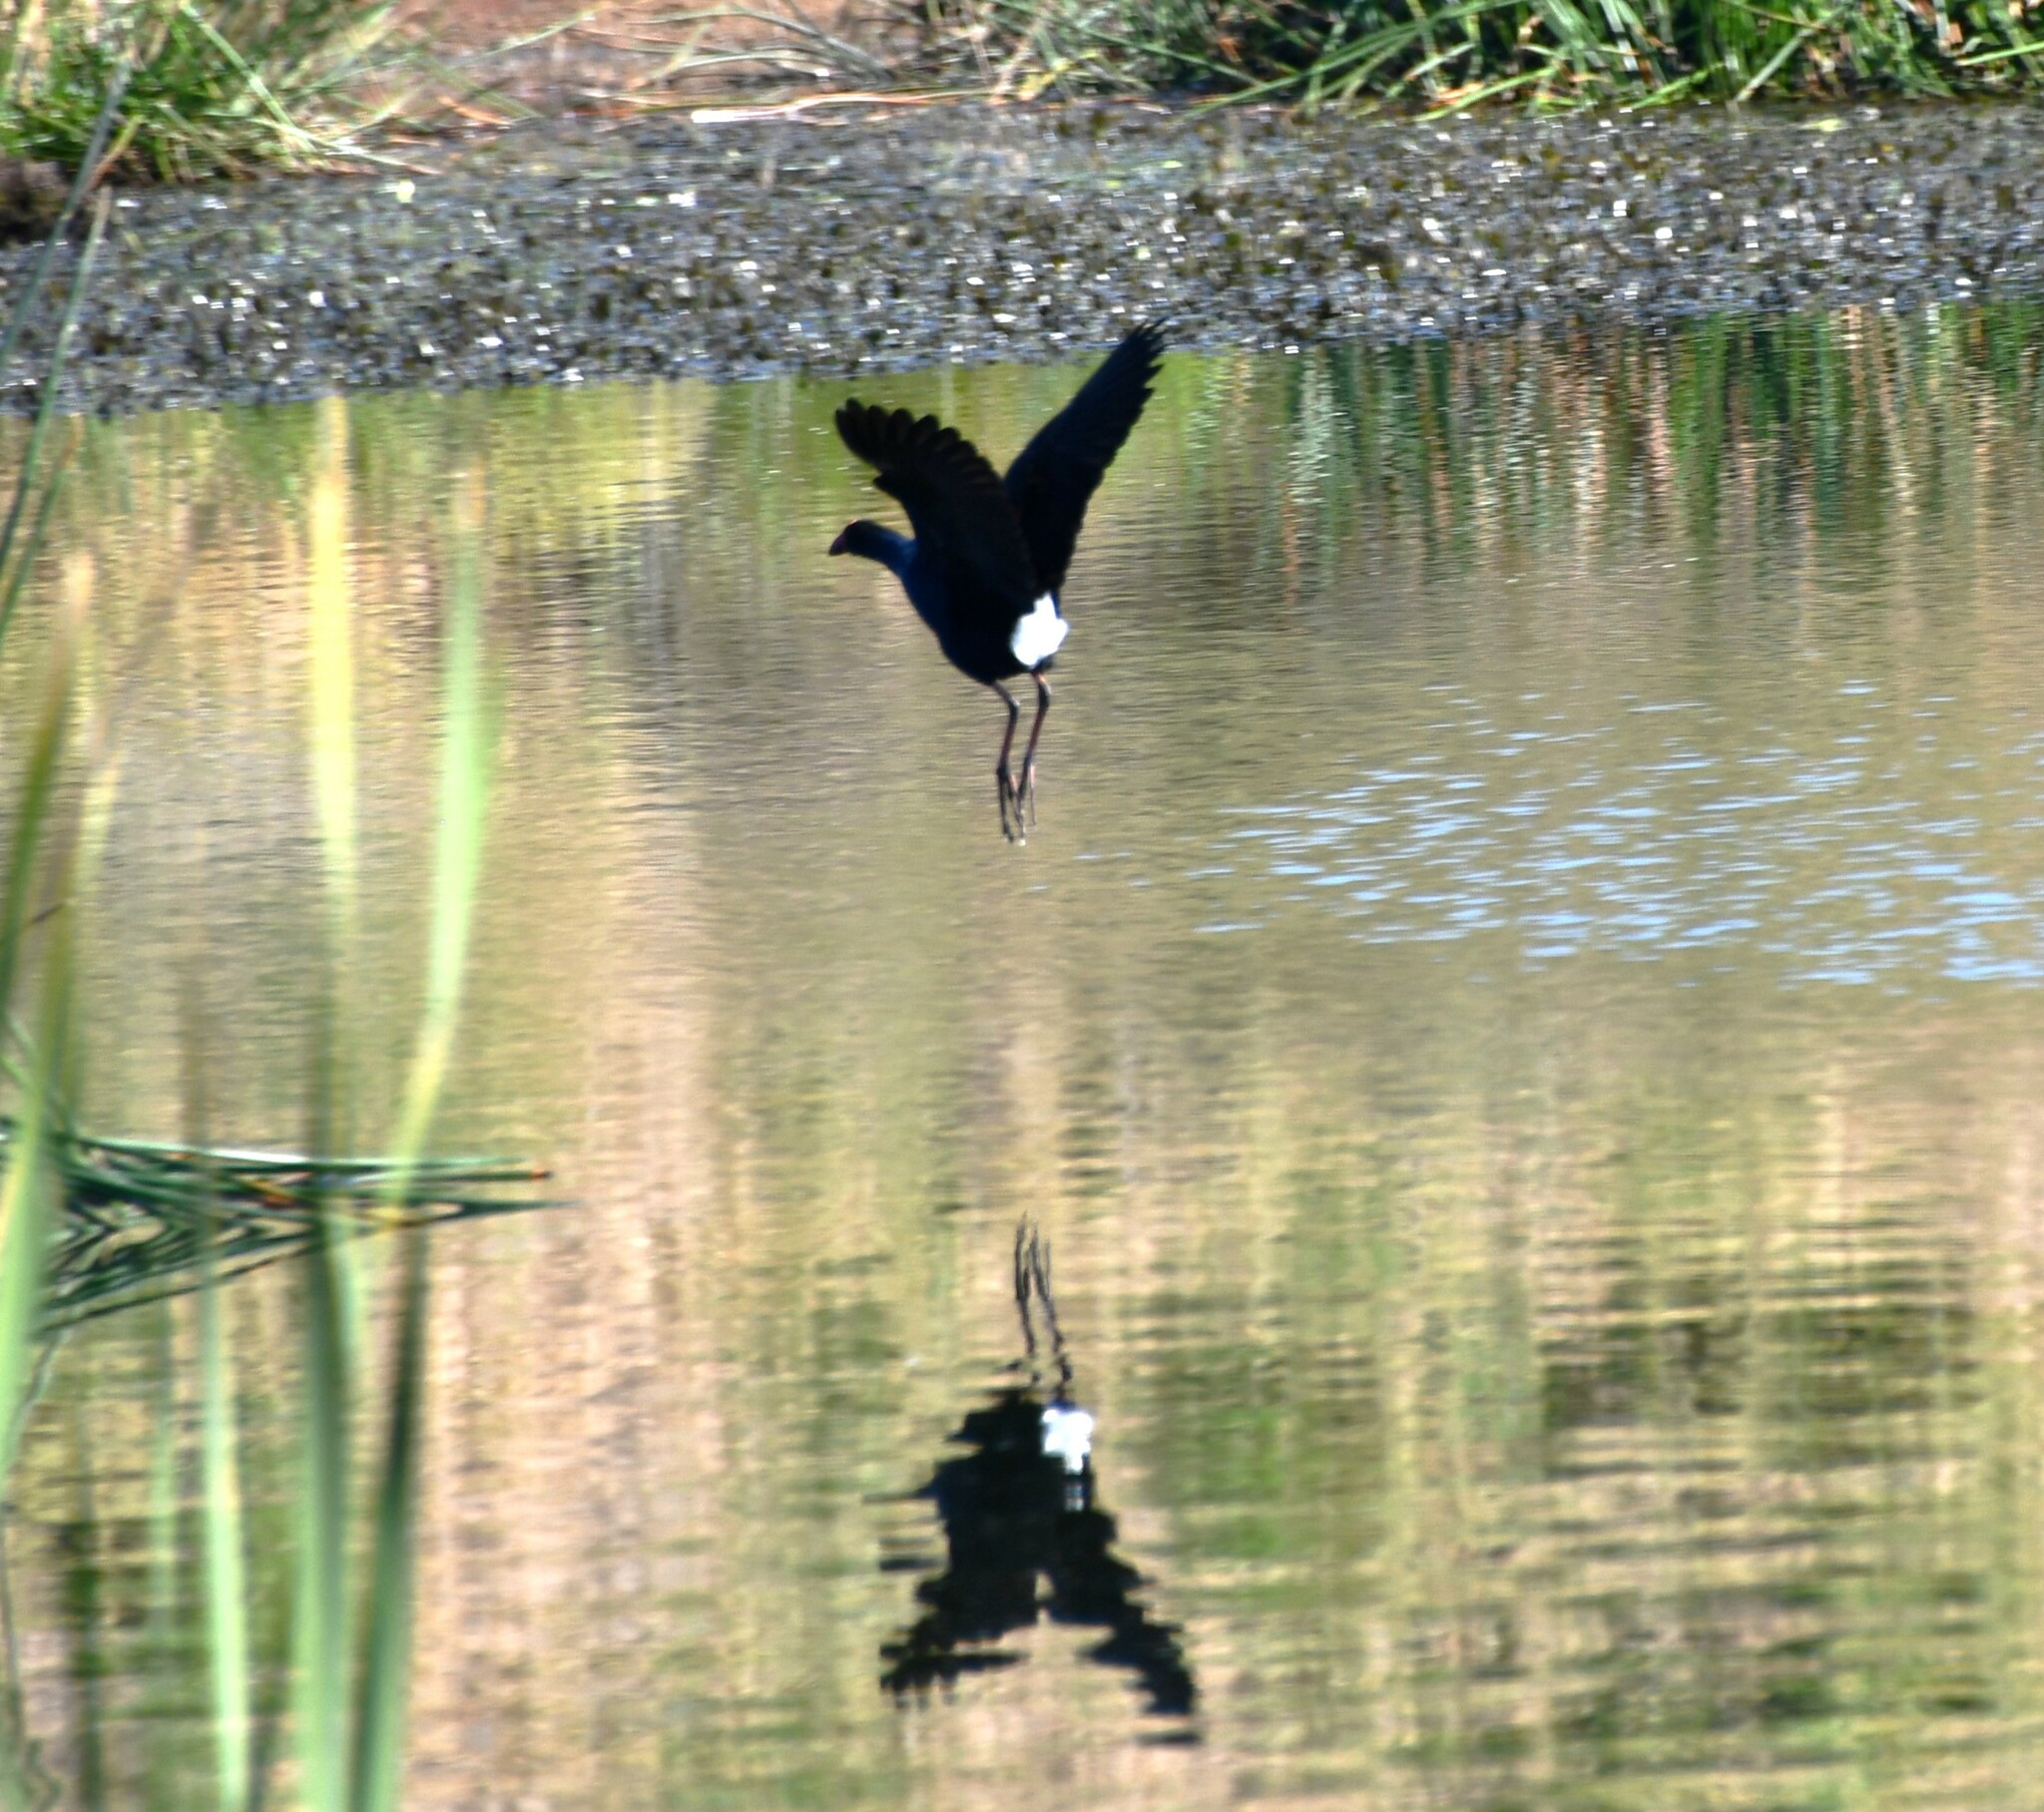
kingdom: Animalia
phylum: Chordata
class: Aves
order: Gruiformes
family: Rallidae
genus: Porphyrio
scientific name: Porphyrio melanotus
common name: Australasian swamphen
